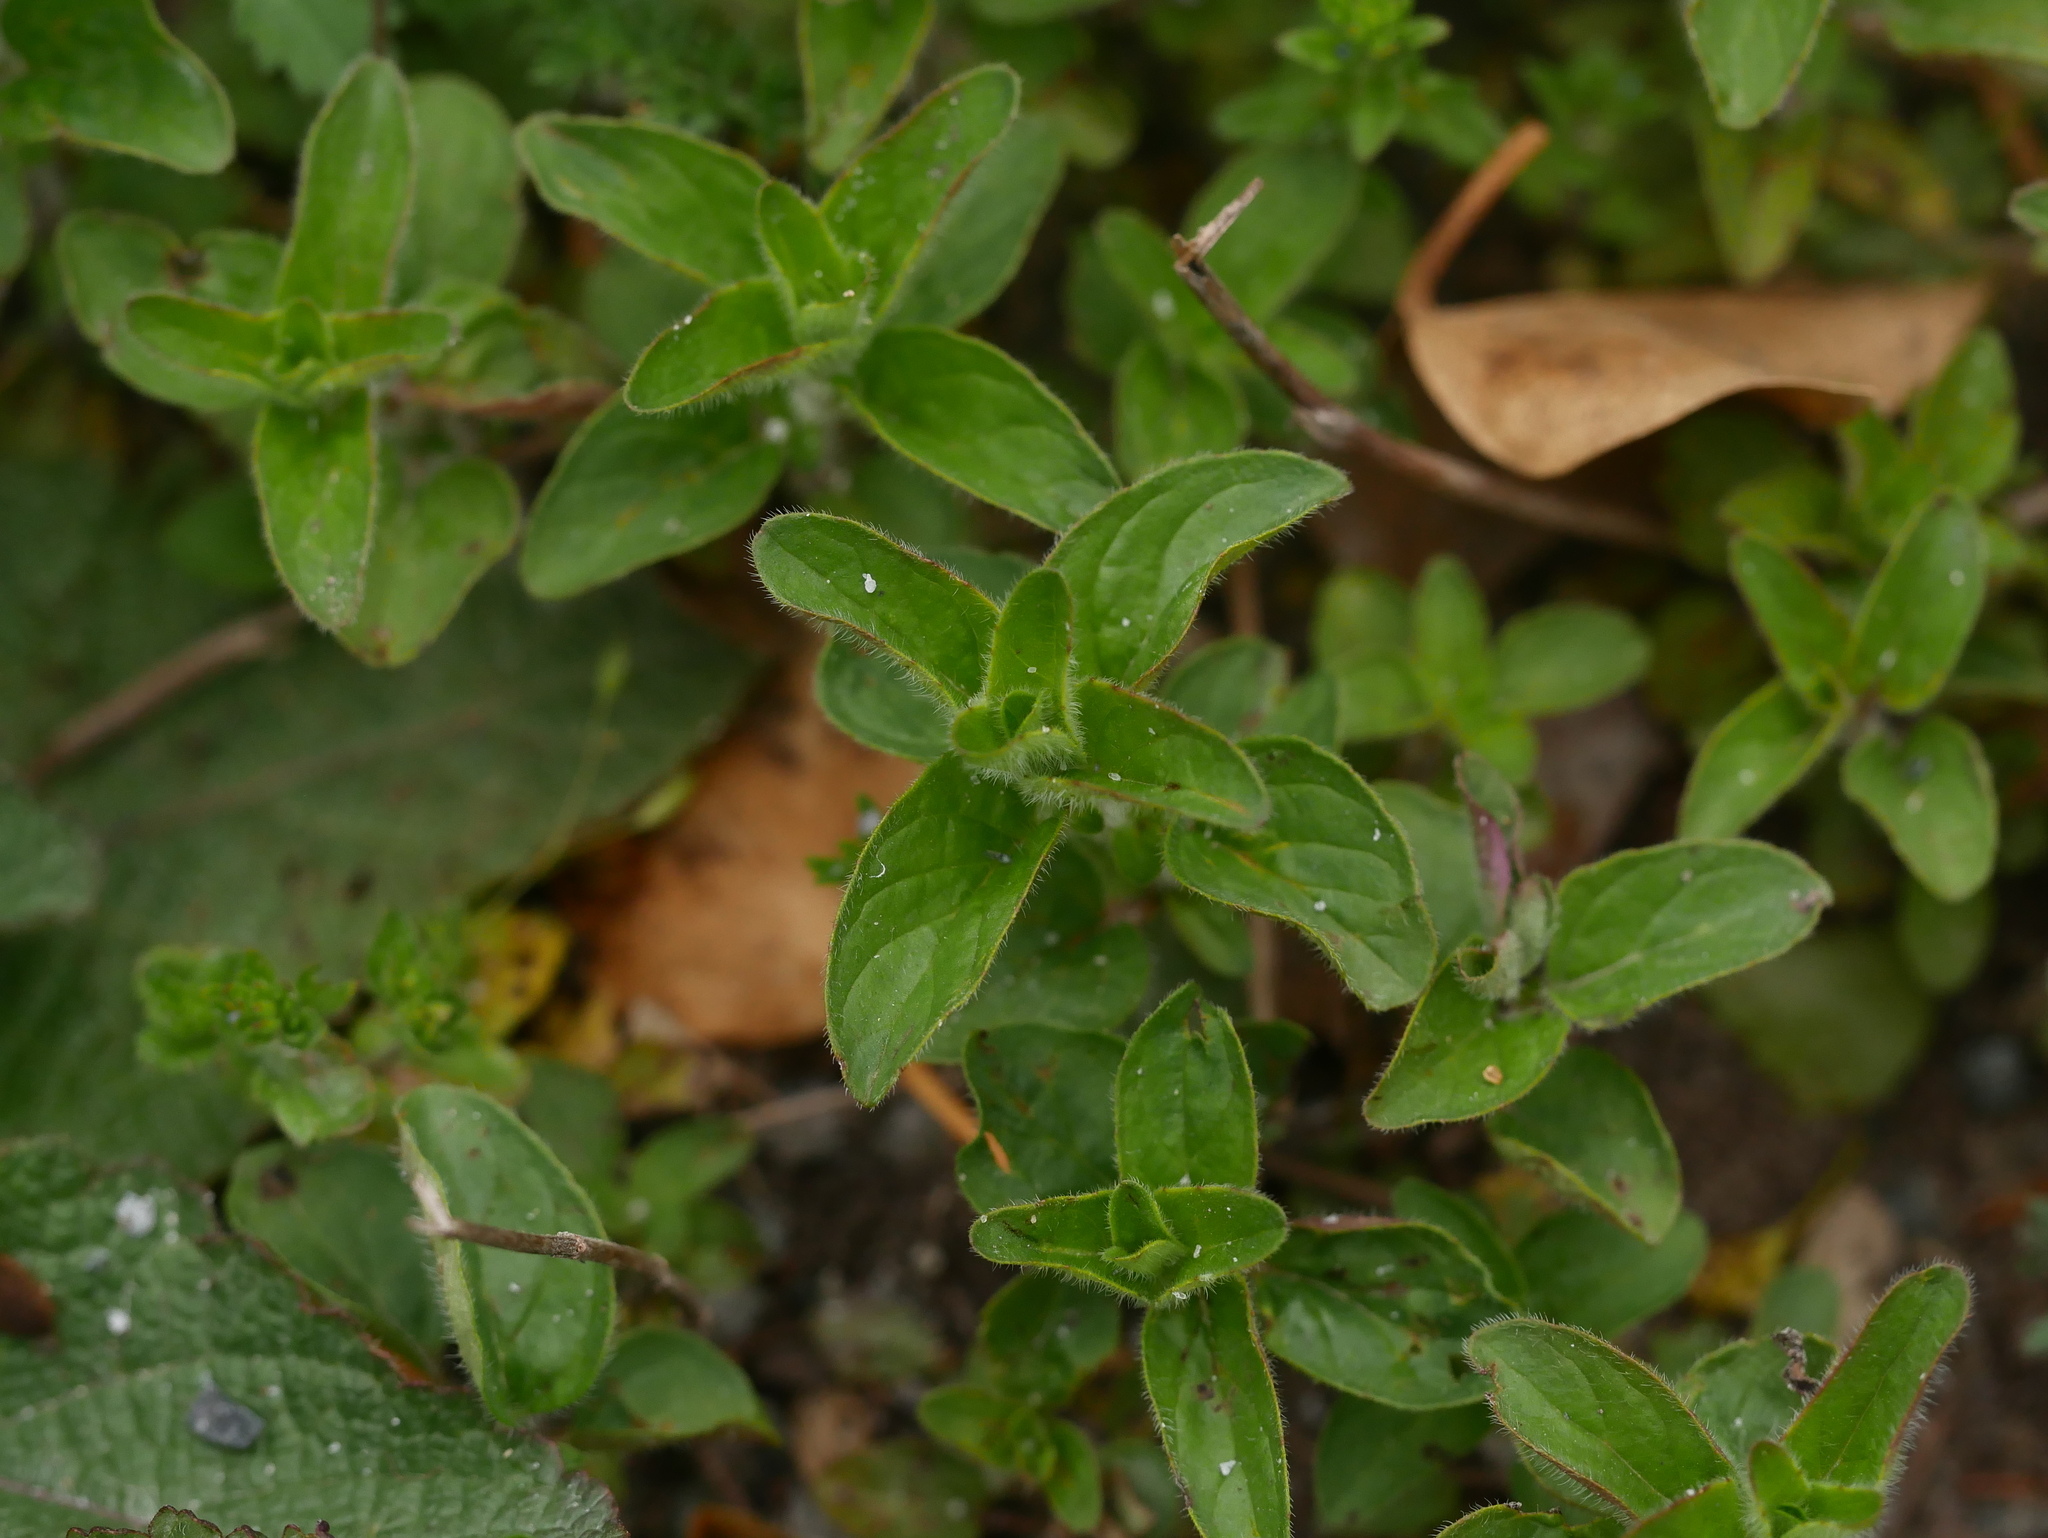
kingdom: Plantae
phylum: Tracheophyta
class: Magnoliopsida
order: Lamiales
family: Lamiaceae
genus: Origanum
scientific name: Origanum vulgare
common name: Wild marjoram
